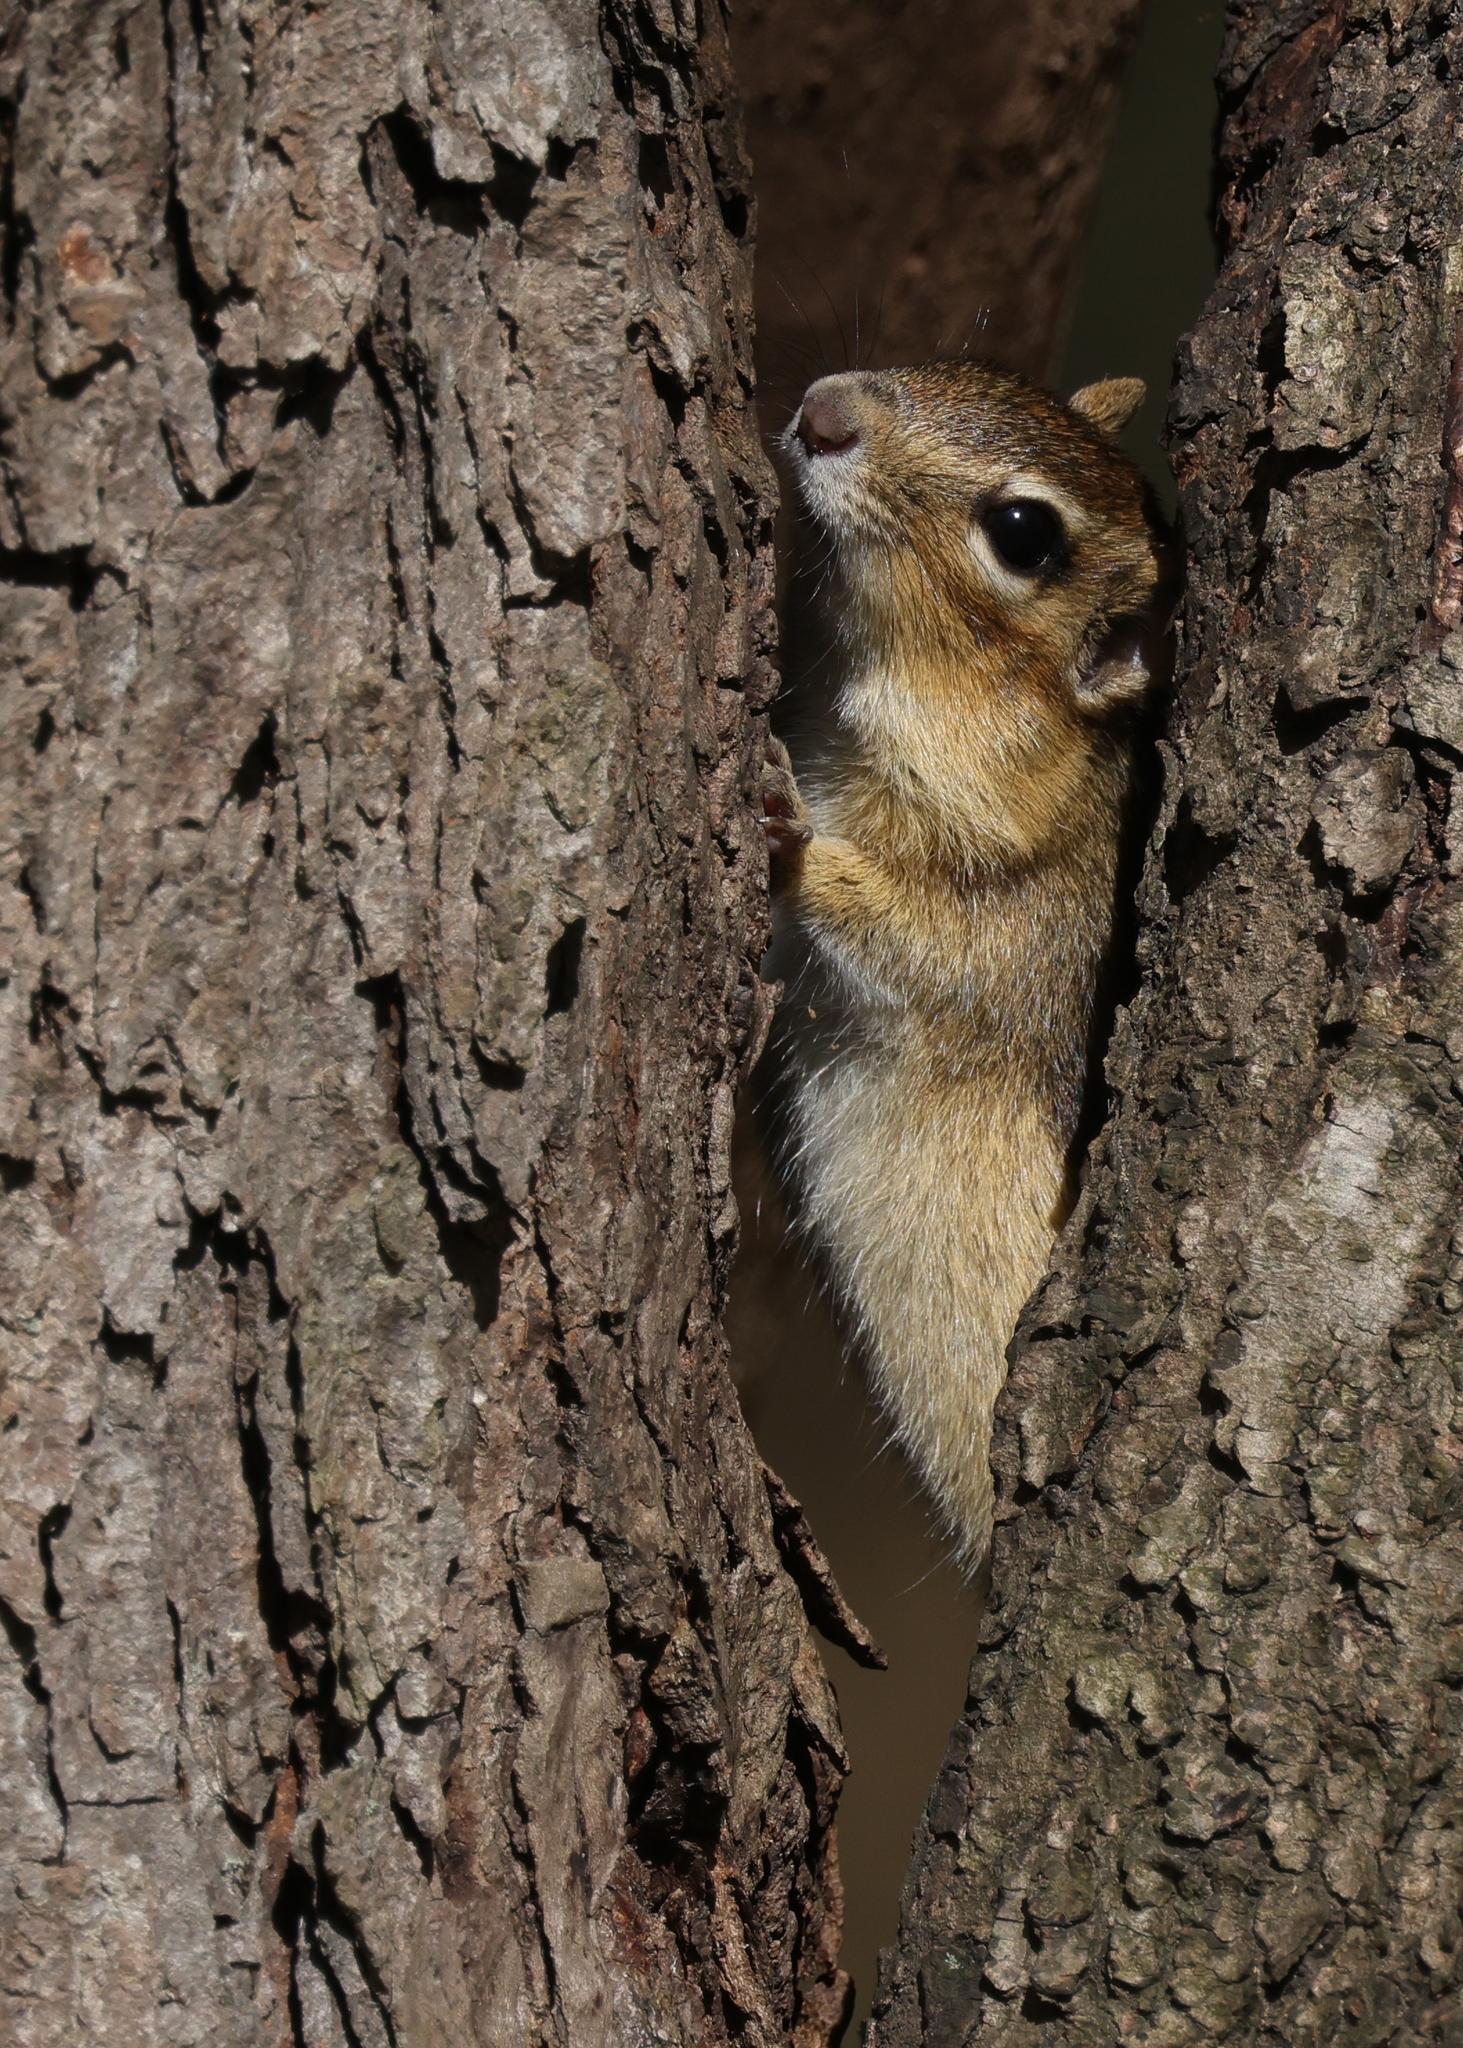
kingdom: Animalia
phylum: Chordata
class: Mammalia
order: Rodentia
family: Sciuridae
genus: Tamias
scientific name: Tamias striatus
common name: Eastern chipmunk
